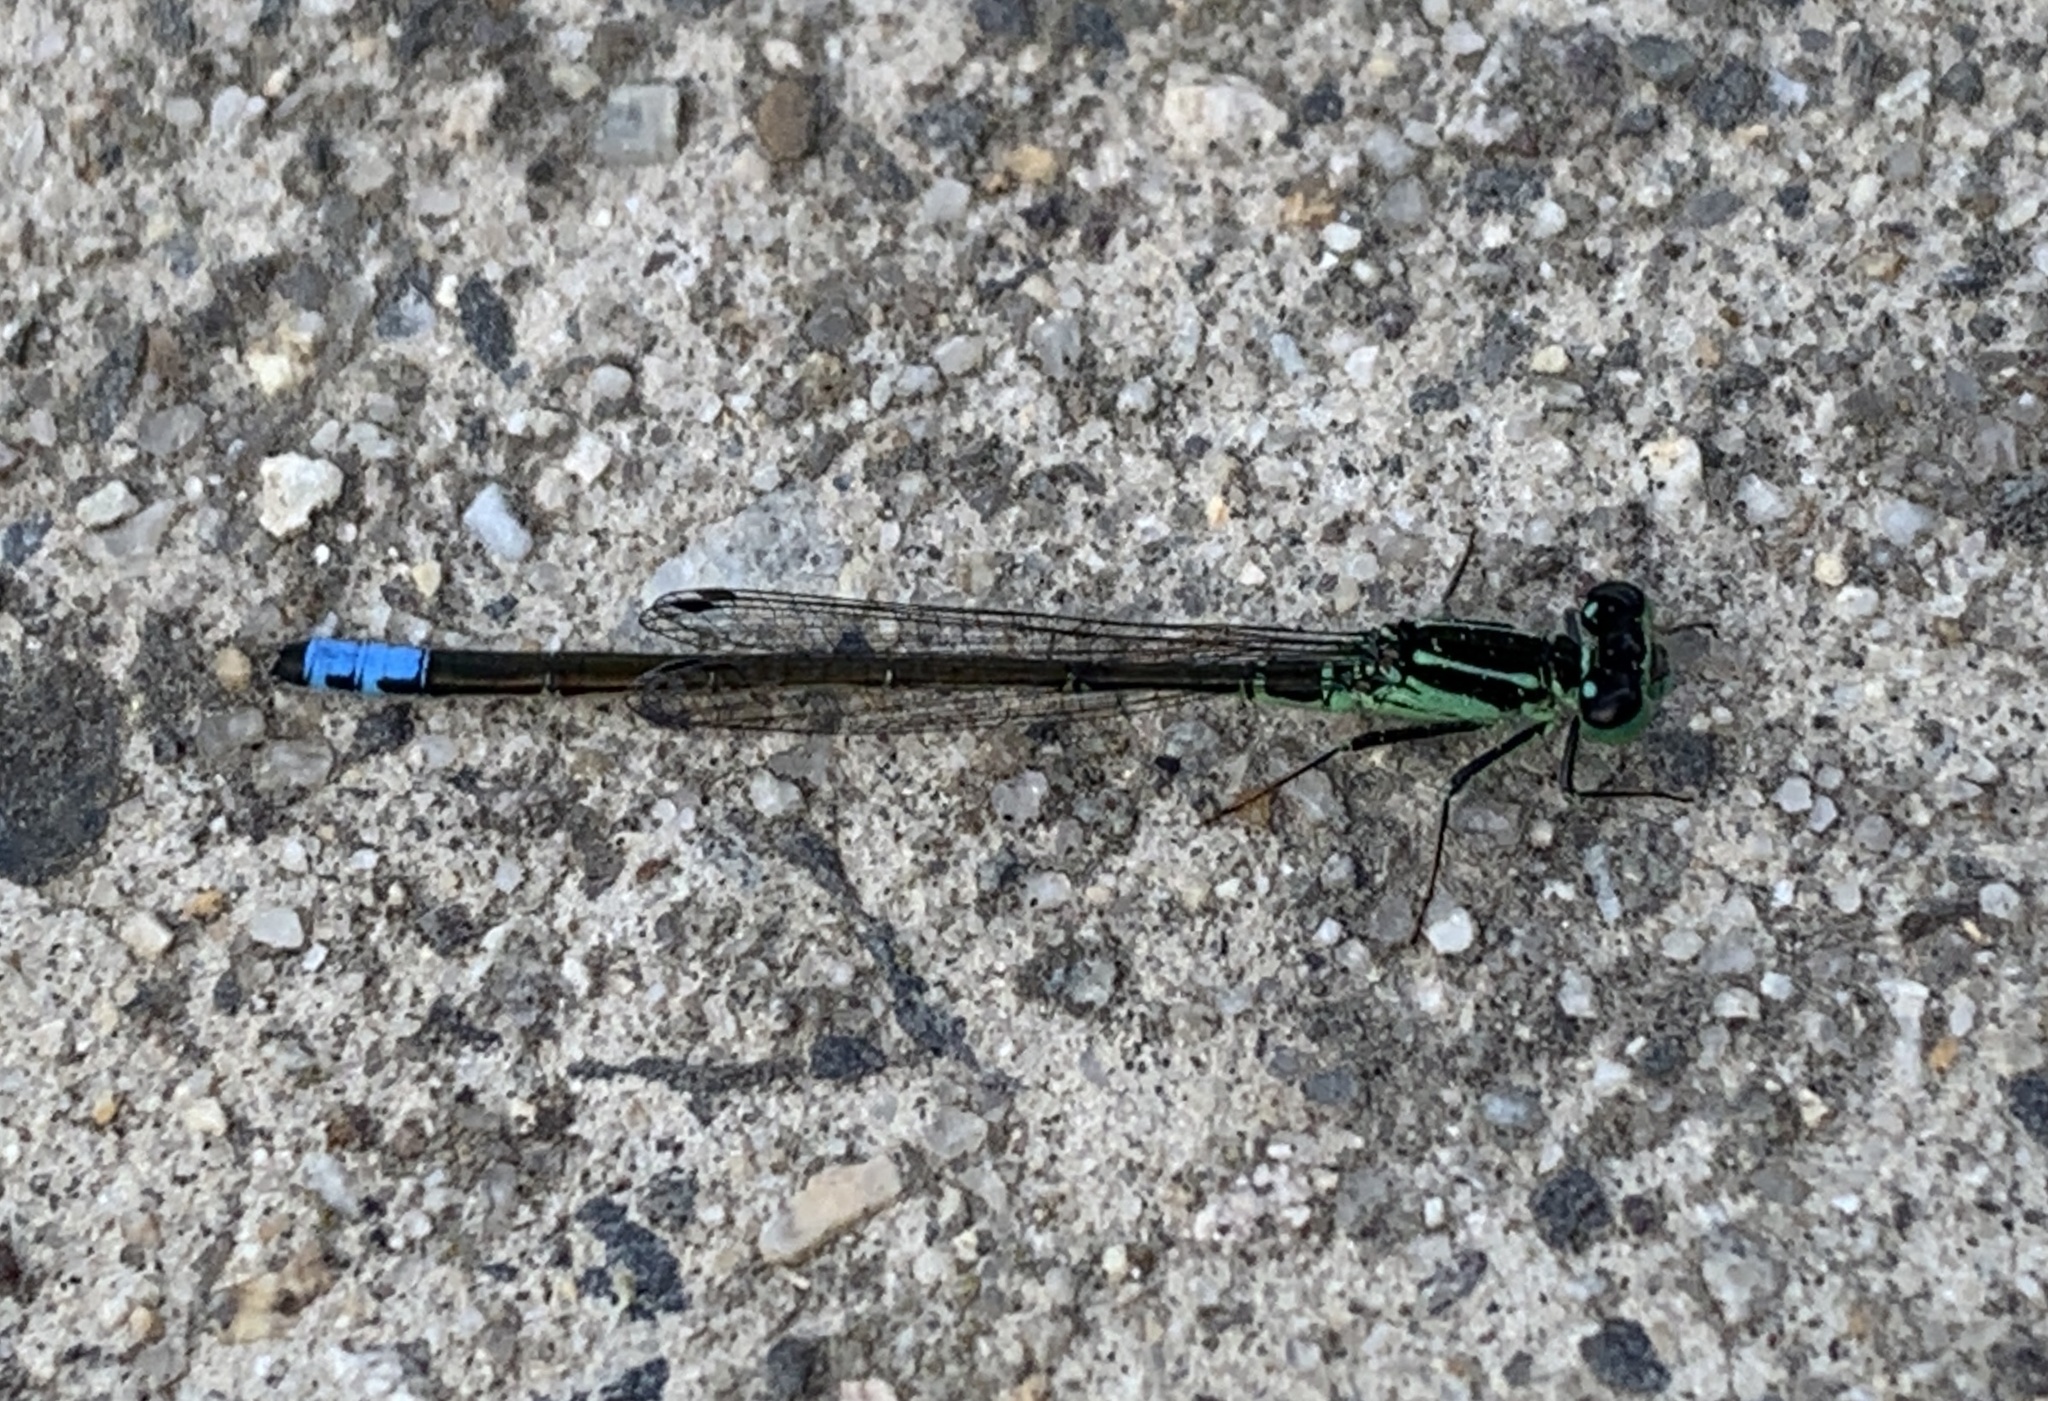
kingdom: Animalia
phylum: Arthropoda
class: Insecta
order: Odonata
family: Coenagrionidae
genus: Ischnura
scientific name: Ischnura verticalis
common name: Eastern forktail
